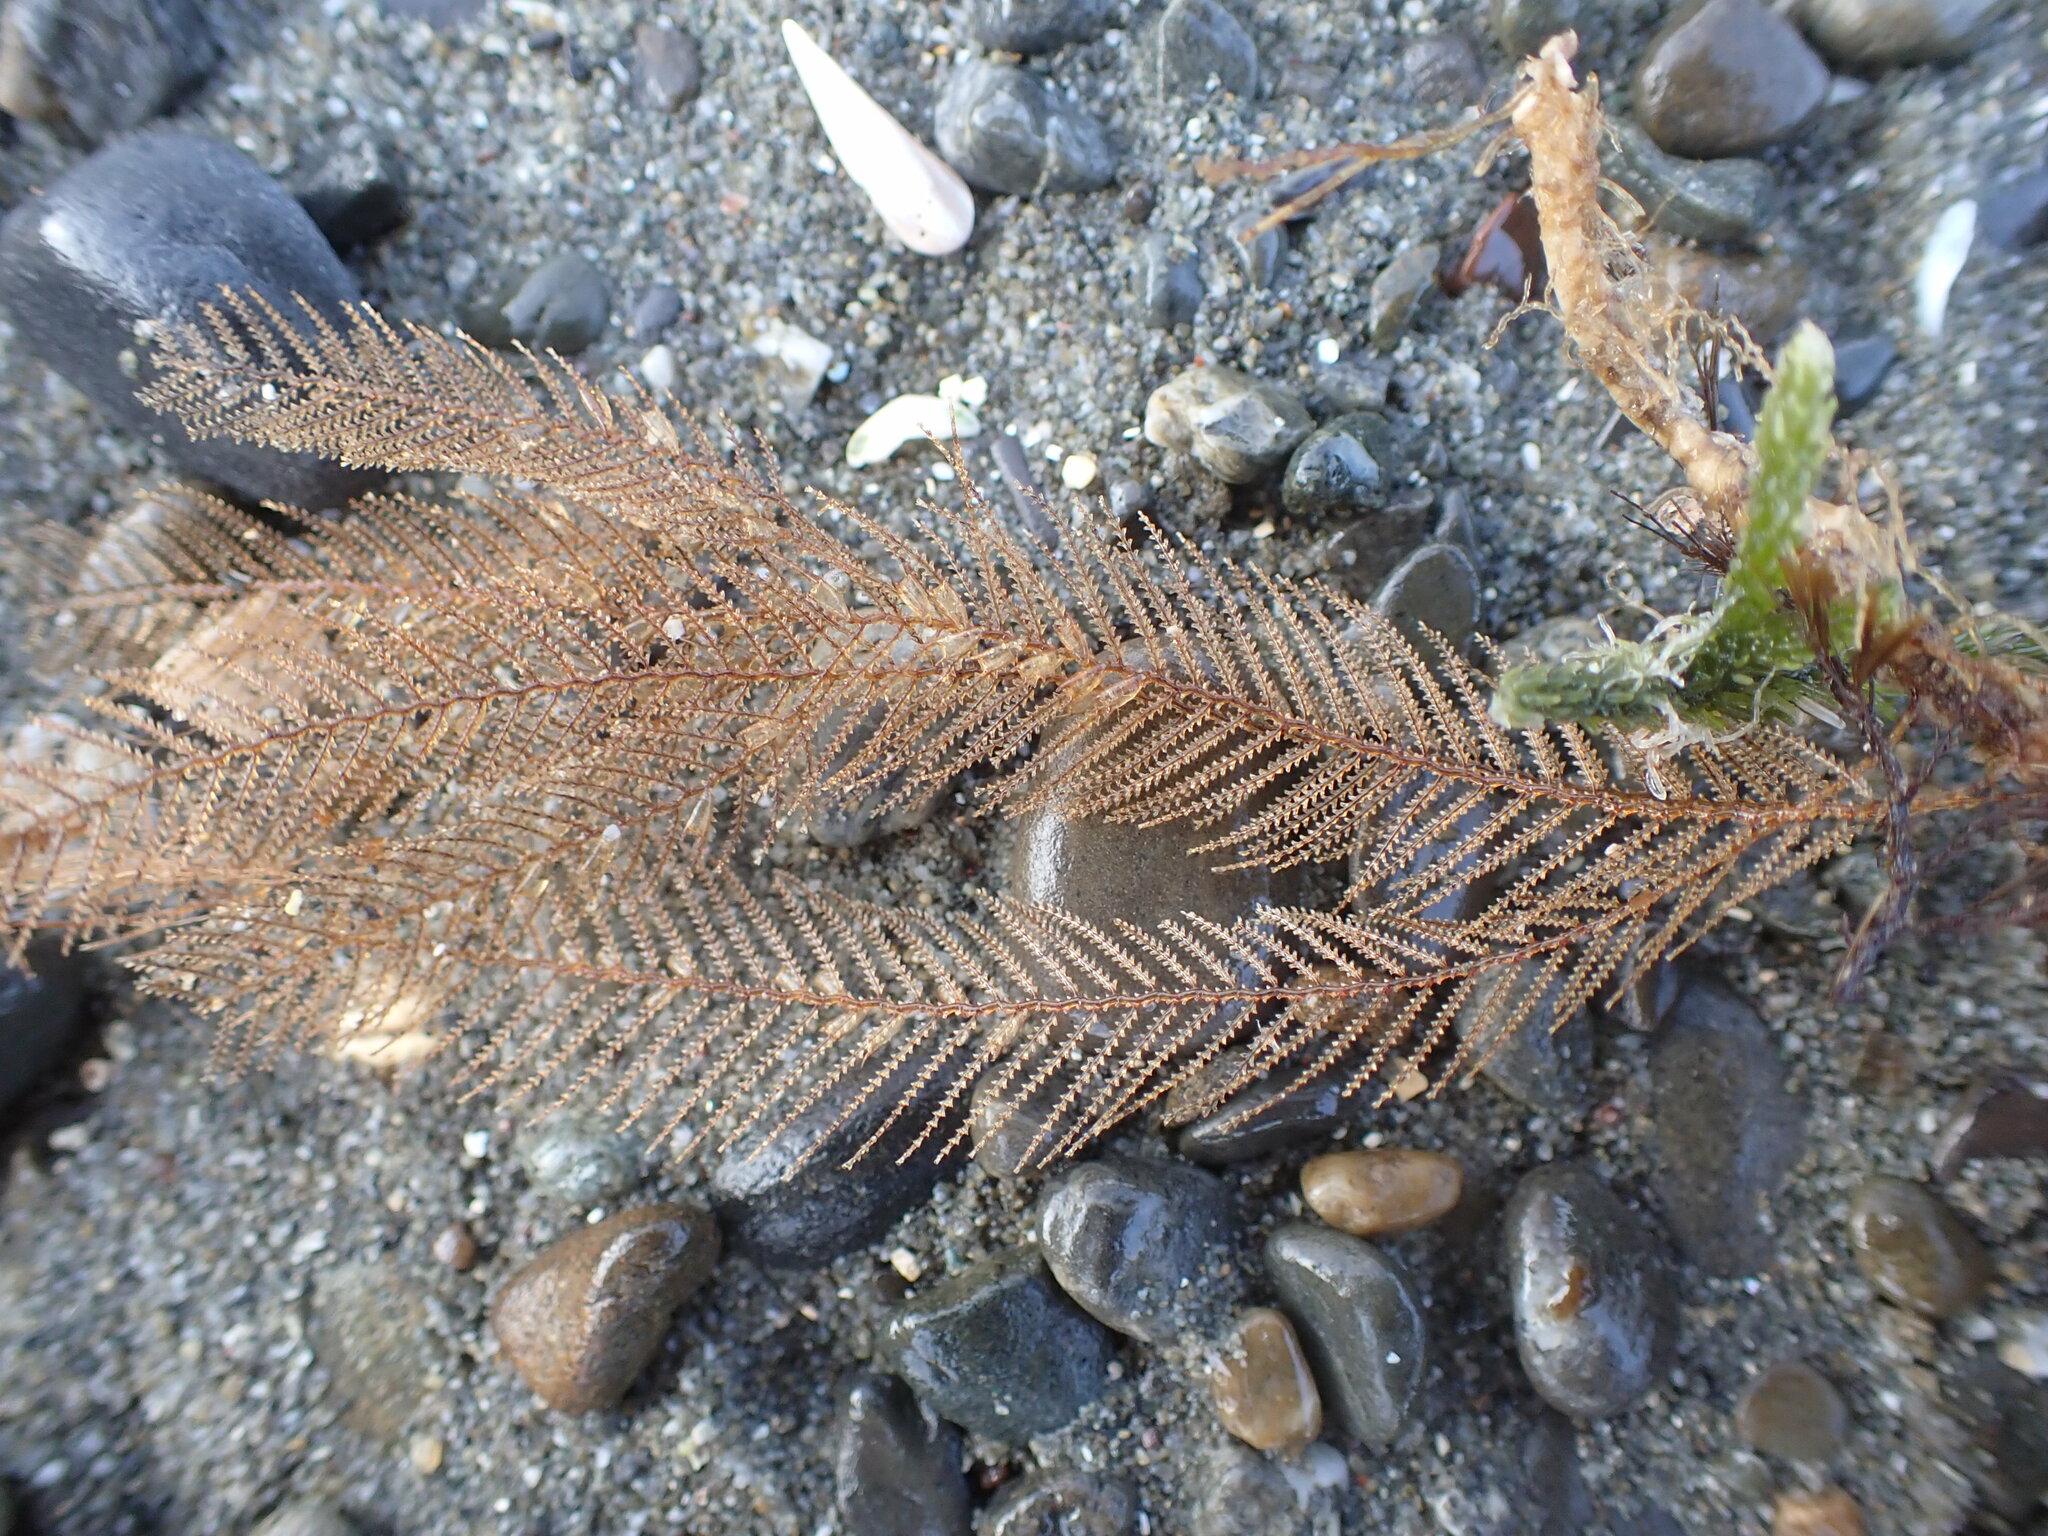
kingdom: Animalia
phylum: Cnidaria
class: Hydrozoa
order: Leptothecata
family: Sertulariidae
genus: Amphisbetia
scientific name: Amphisbetia bispinosa
